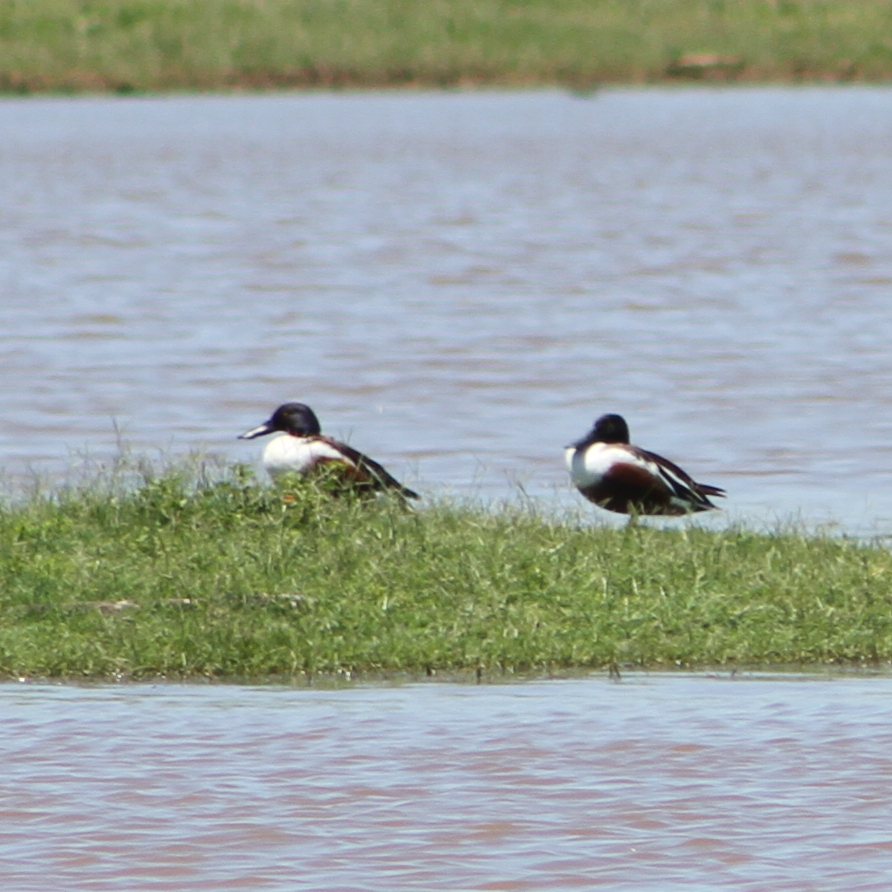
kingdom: Animalia
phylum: Chordata
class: Aves
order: Anseriformes
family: Anatidae
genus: Spatula
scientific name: Spatula clypeata
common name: Northern shoveler
